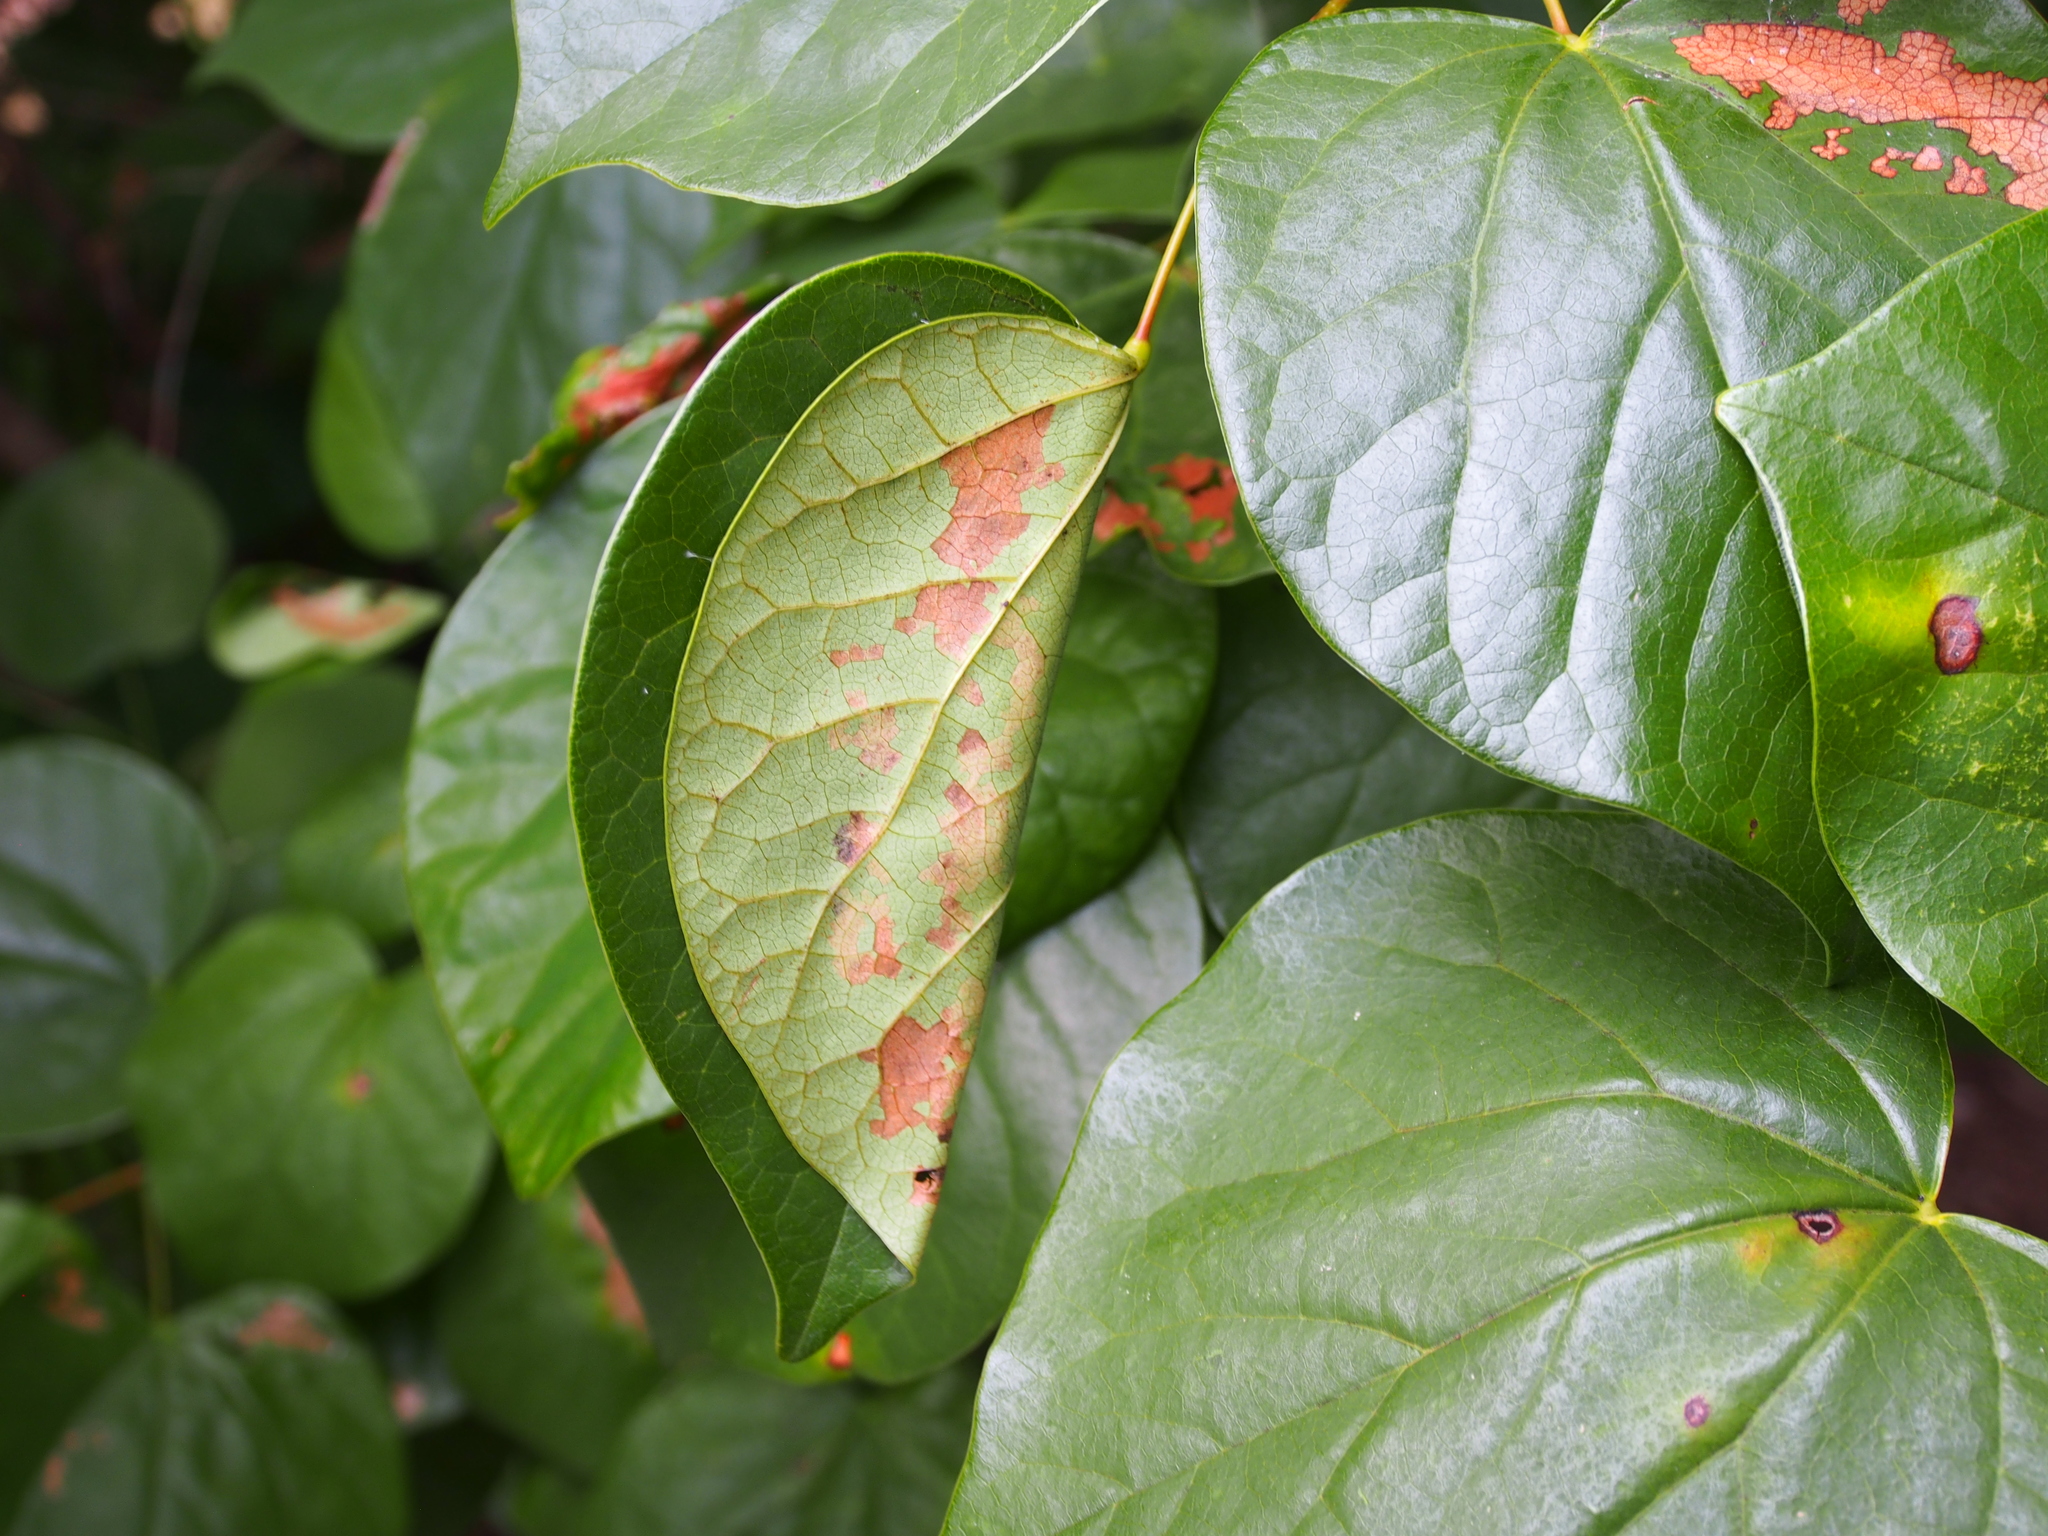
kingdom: Animalia
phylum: Arthropoda
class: Insecta
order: Lepidoptera
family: Gelechiidae
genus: Fascista
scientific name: Fascista cercerisella
